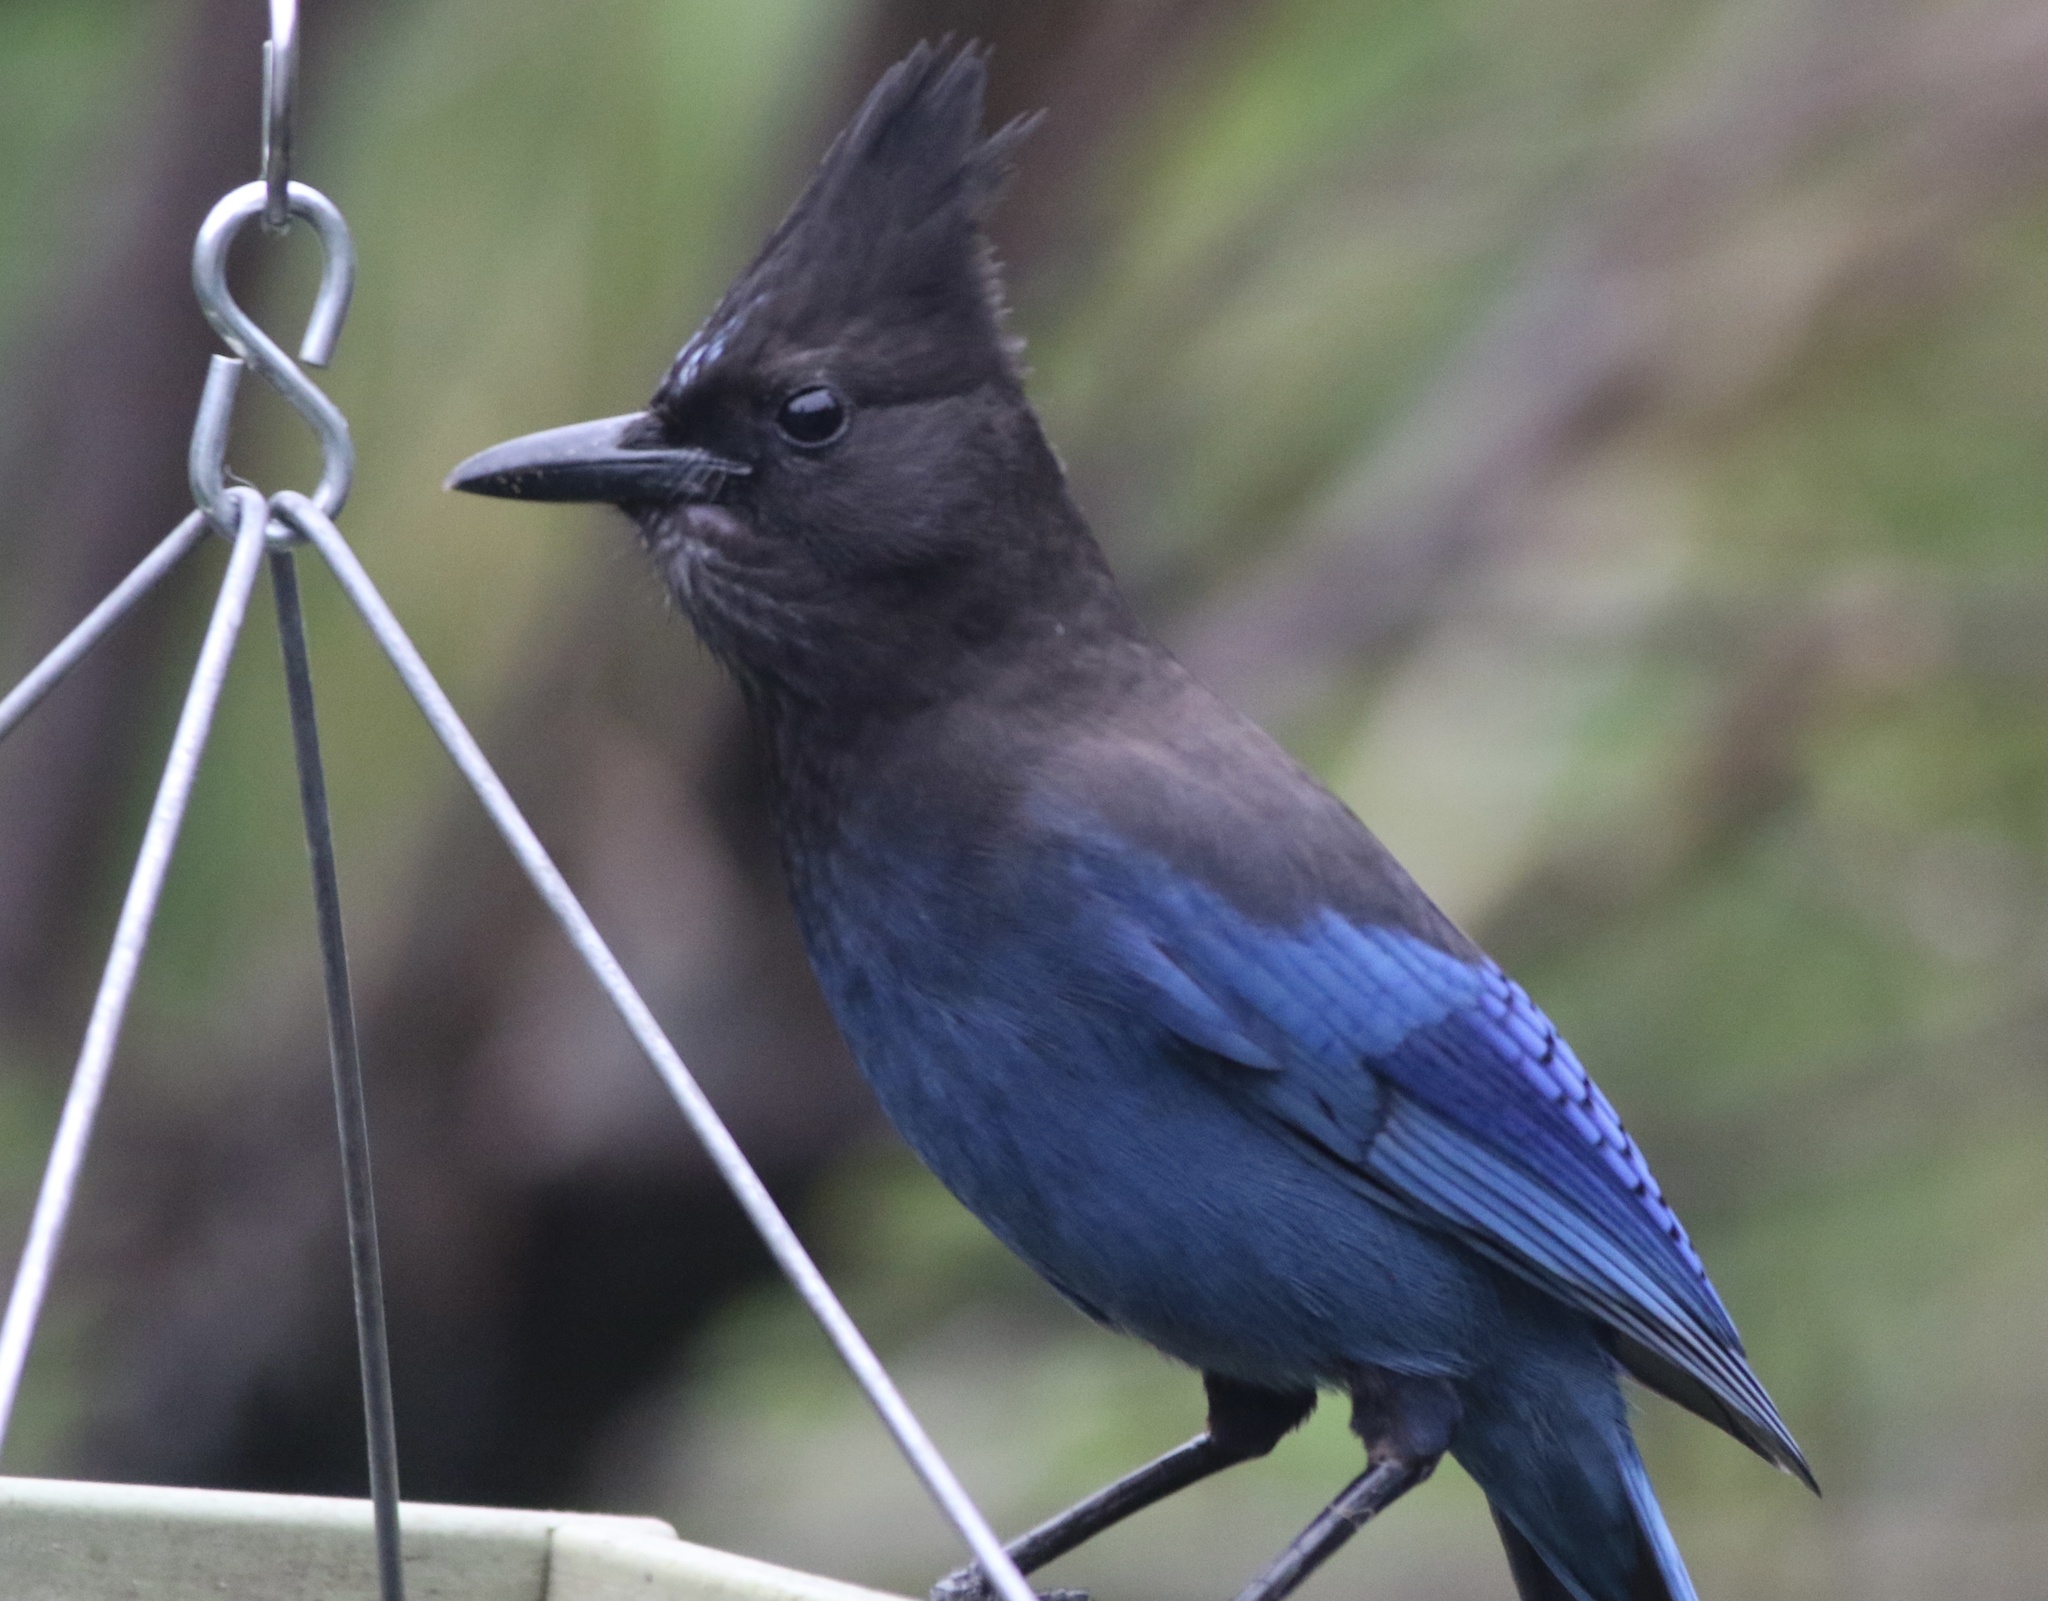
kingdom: Animalia
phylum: Chordata
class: Aves
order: Passeriformes
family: Corvidae
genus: Cyanocitta
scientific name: Cyanocitta stelleri
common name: Steller's jay
